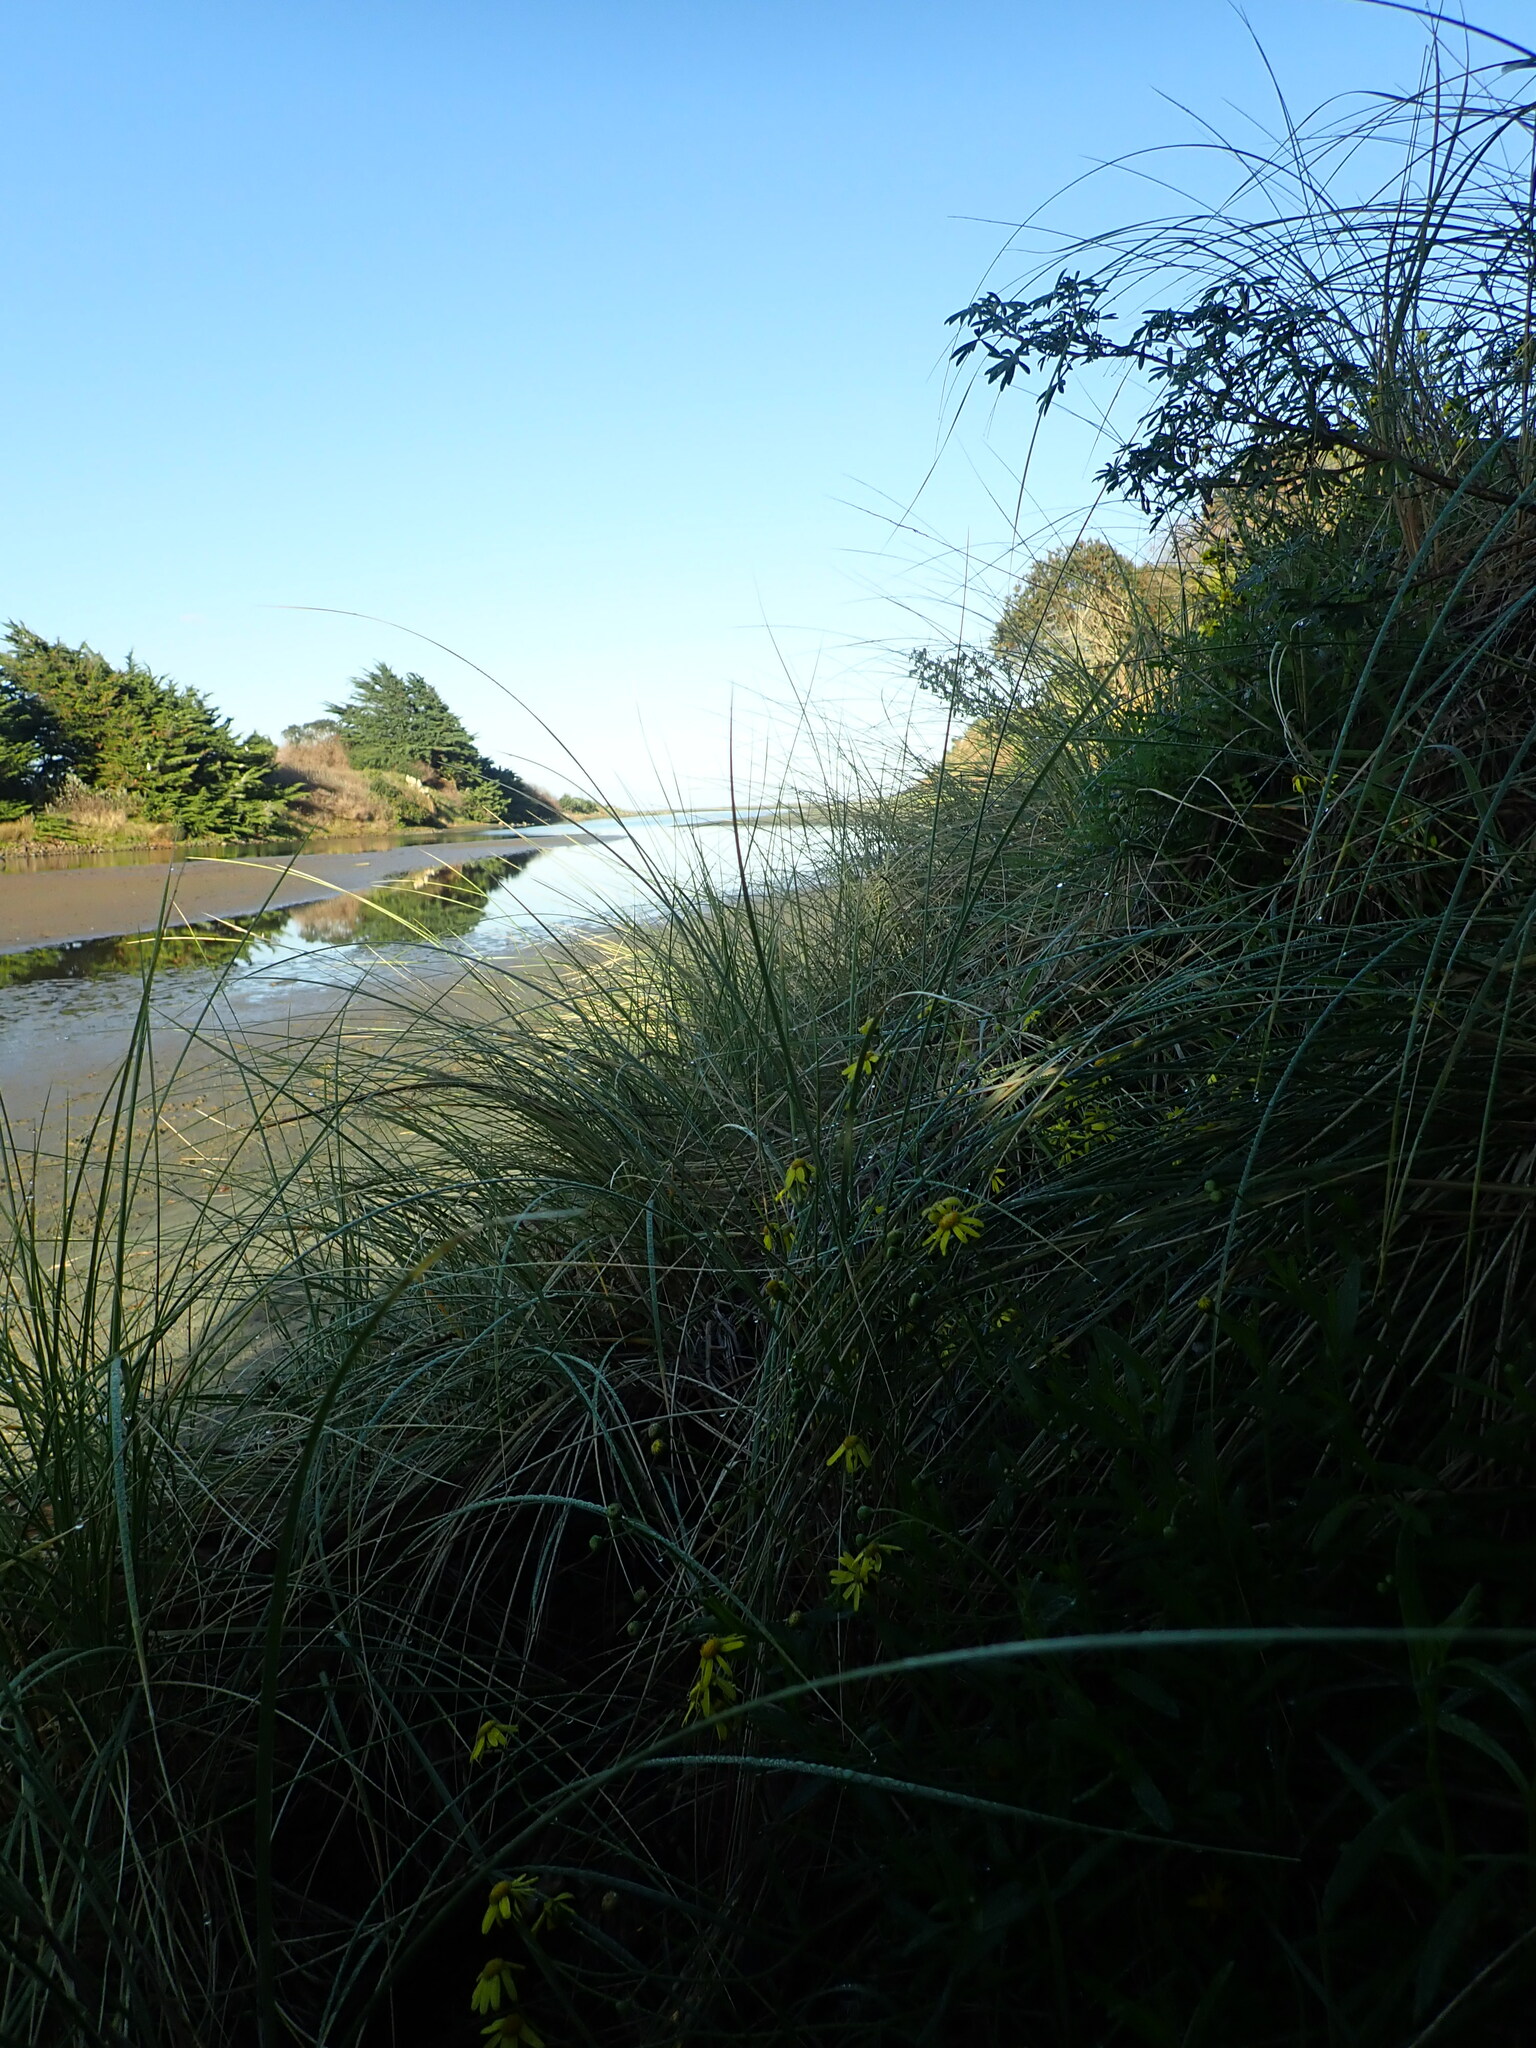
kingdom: Plantae
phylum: Tracheophyta
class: Magnoliopsida
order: Asterales
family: Asteraceae
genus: Senecio
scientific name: Senecio skirrhodon
